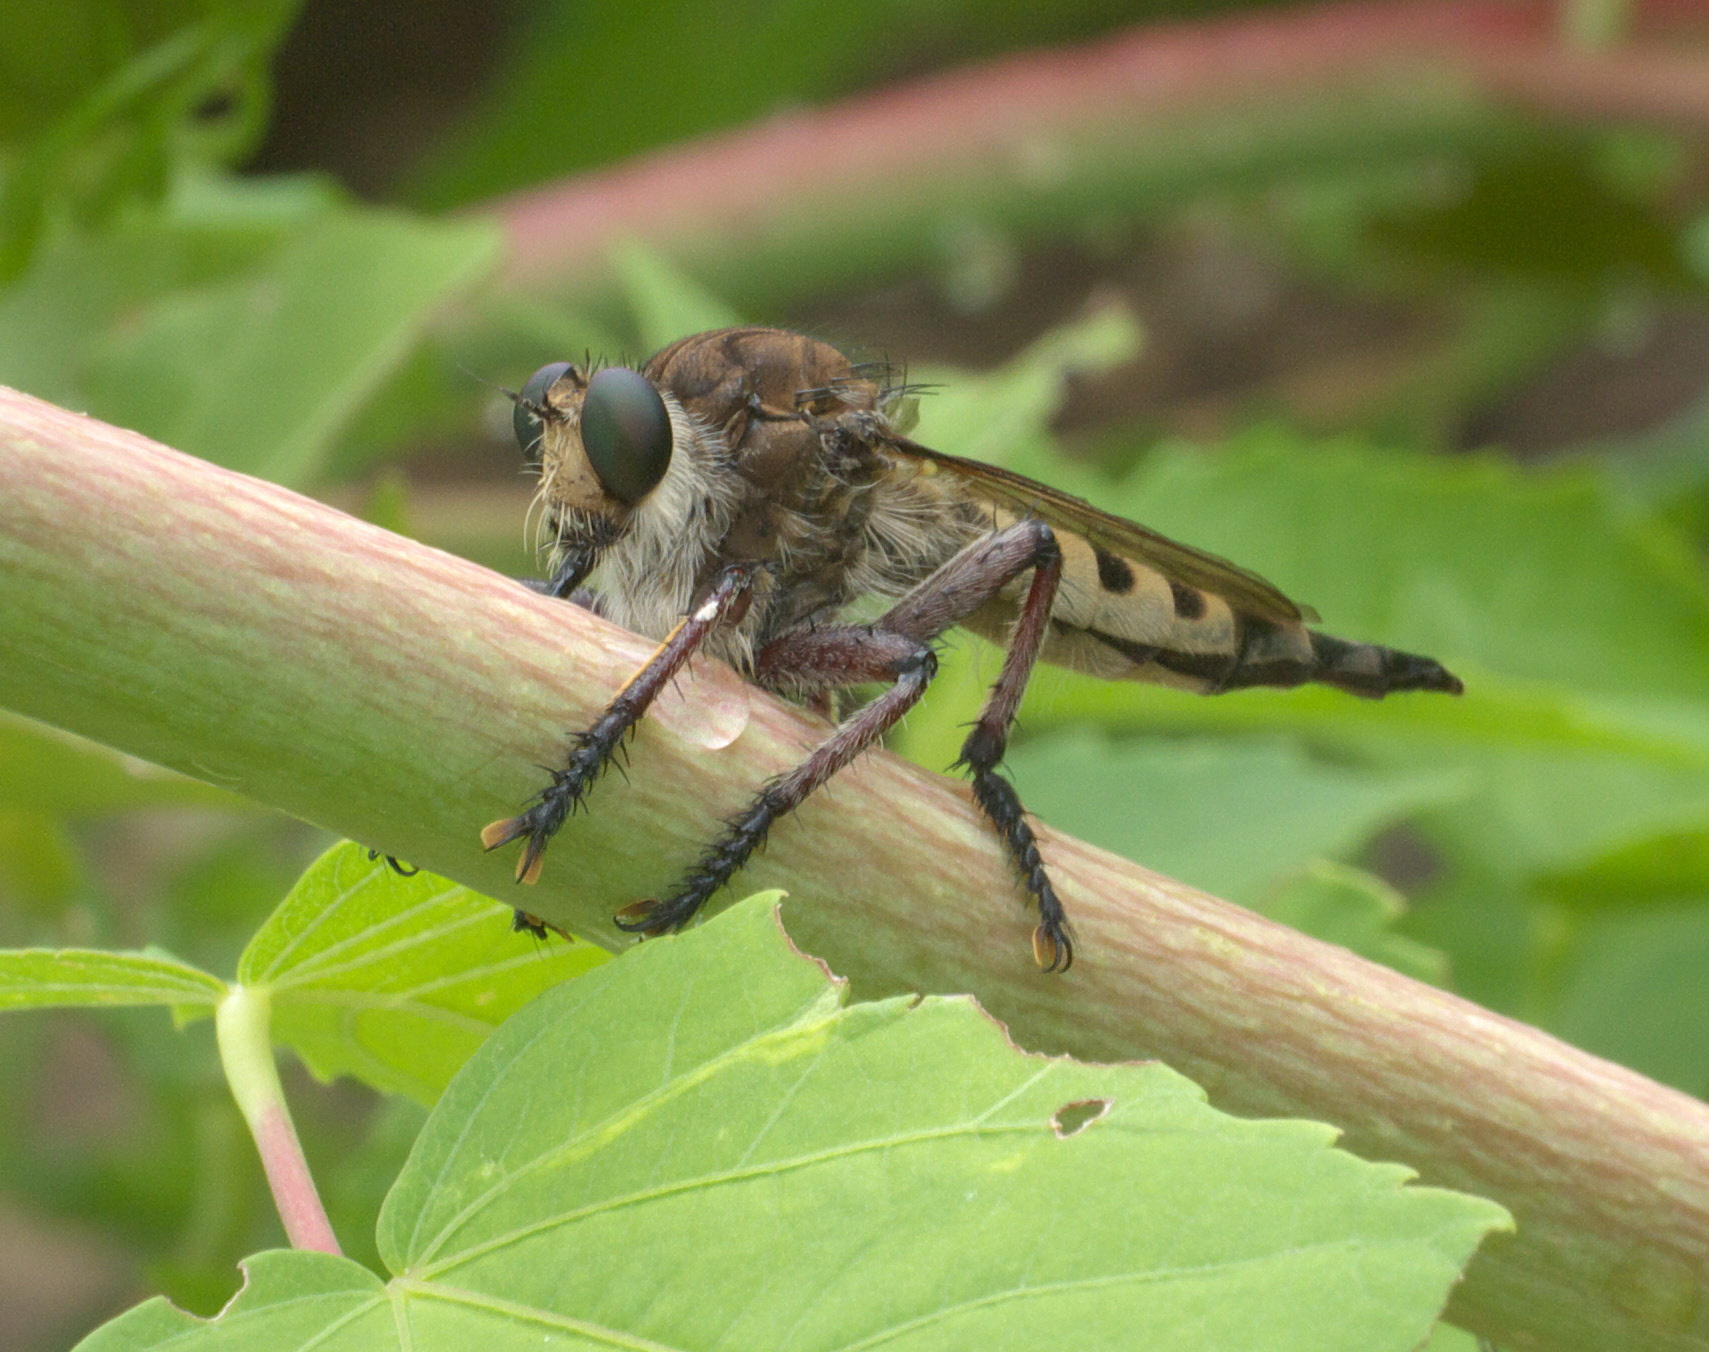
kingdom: Animalia
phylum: Arthropoda
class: Insecta
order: Diptera
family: Asilidae
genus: Promachus
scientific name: Promachus hinei
